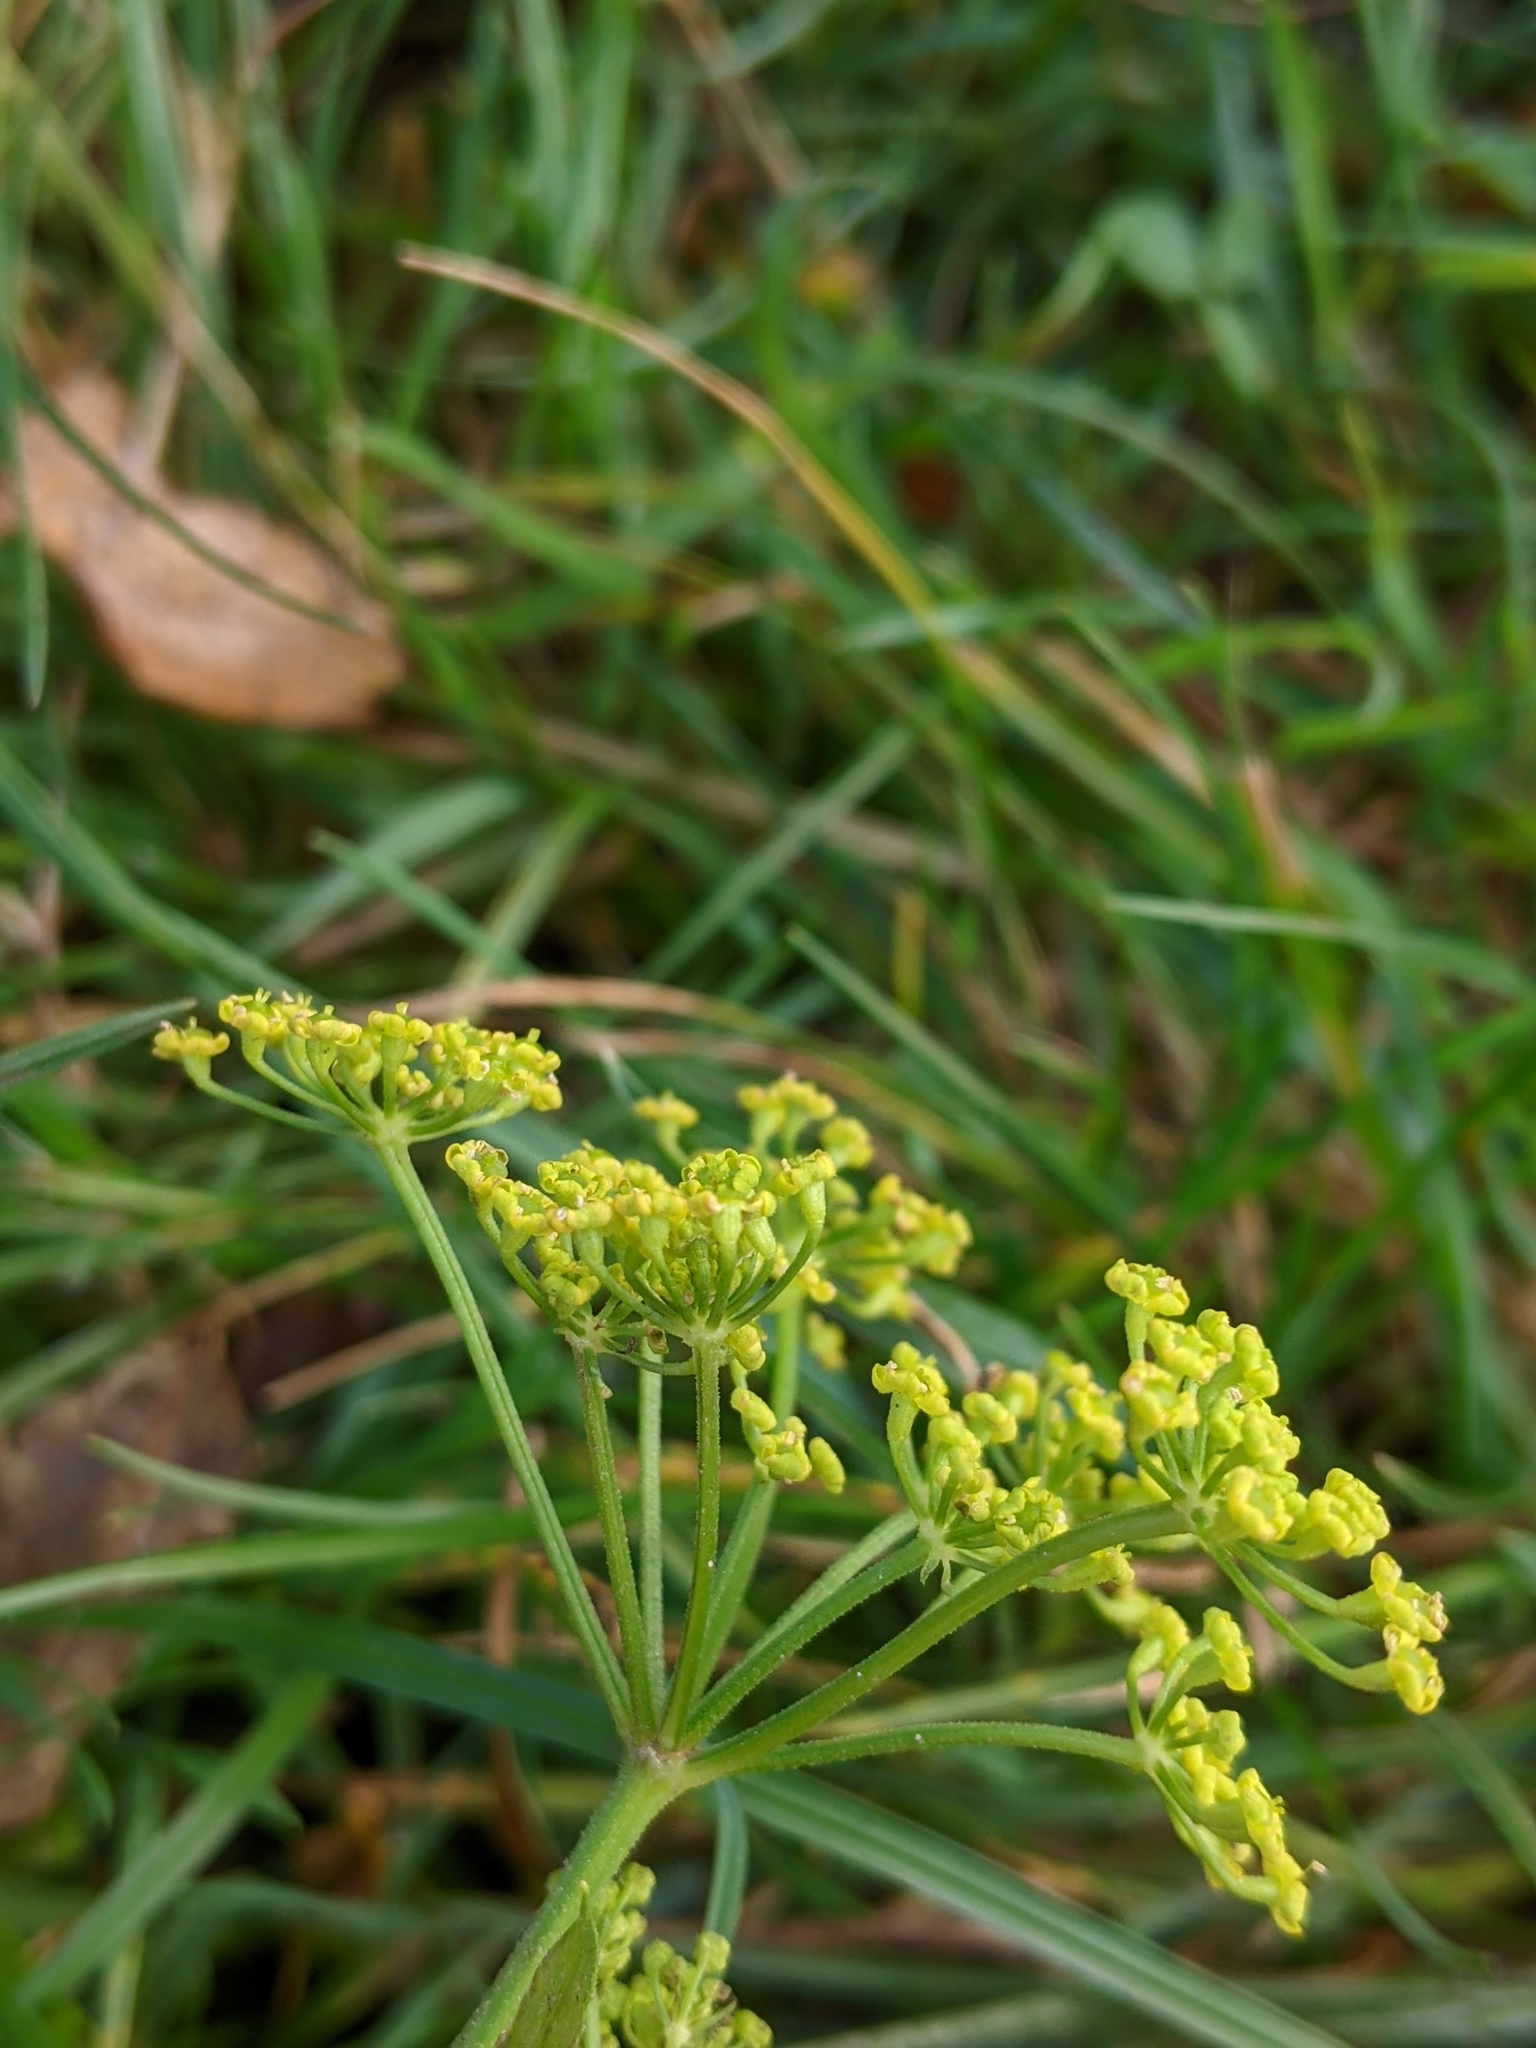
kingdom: Plantae
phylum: Tracheophyta
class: Magnoliopsida
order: Apiales
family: Apiaceae
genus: Pastinaca
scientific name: Pastinaca sativa
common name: Wild parsnip
